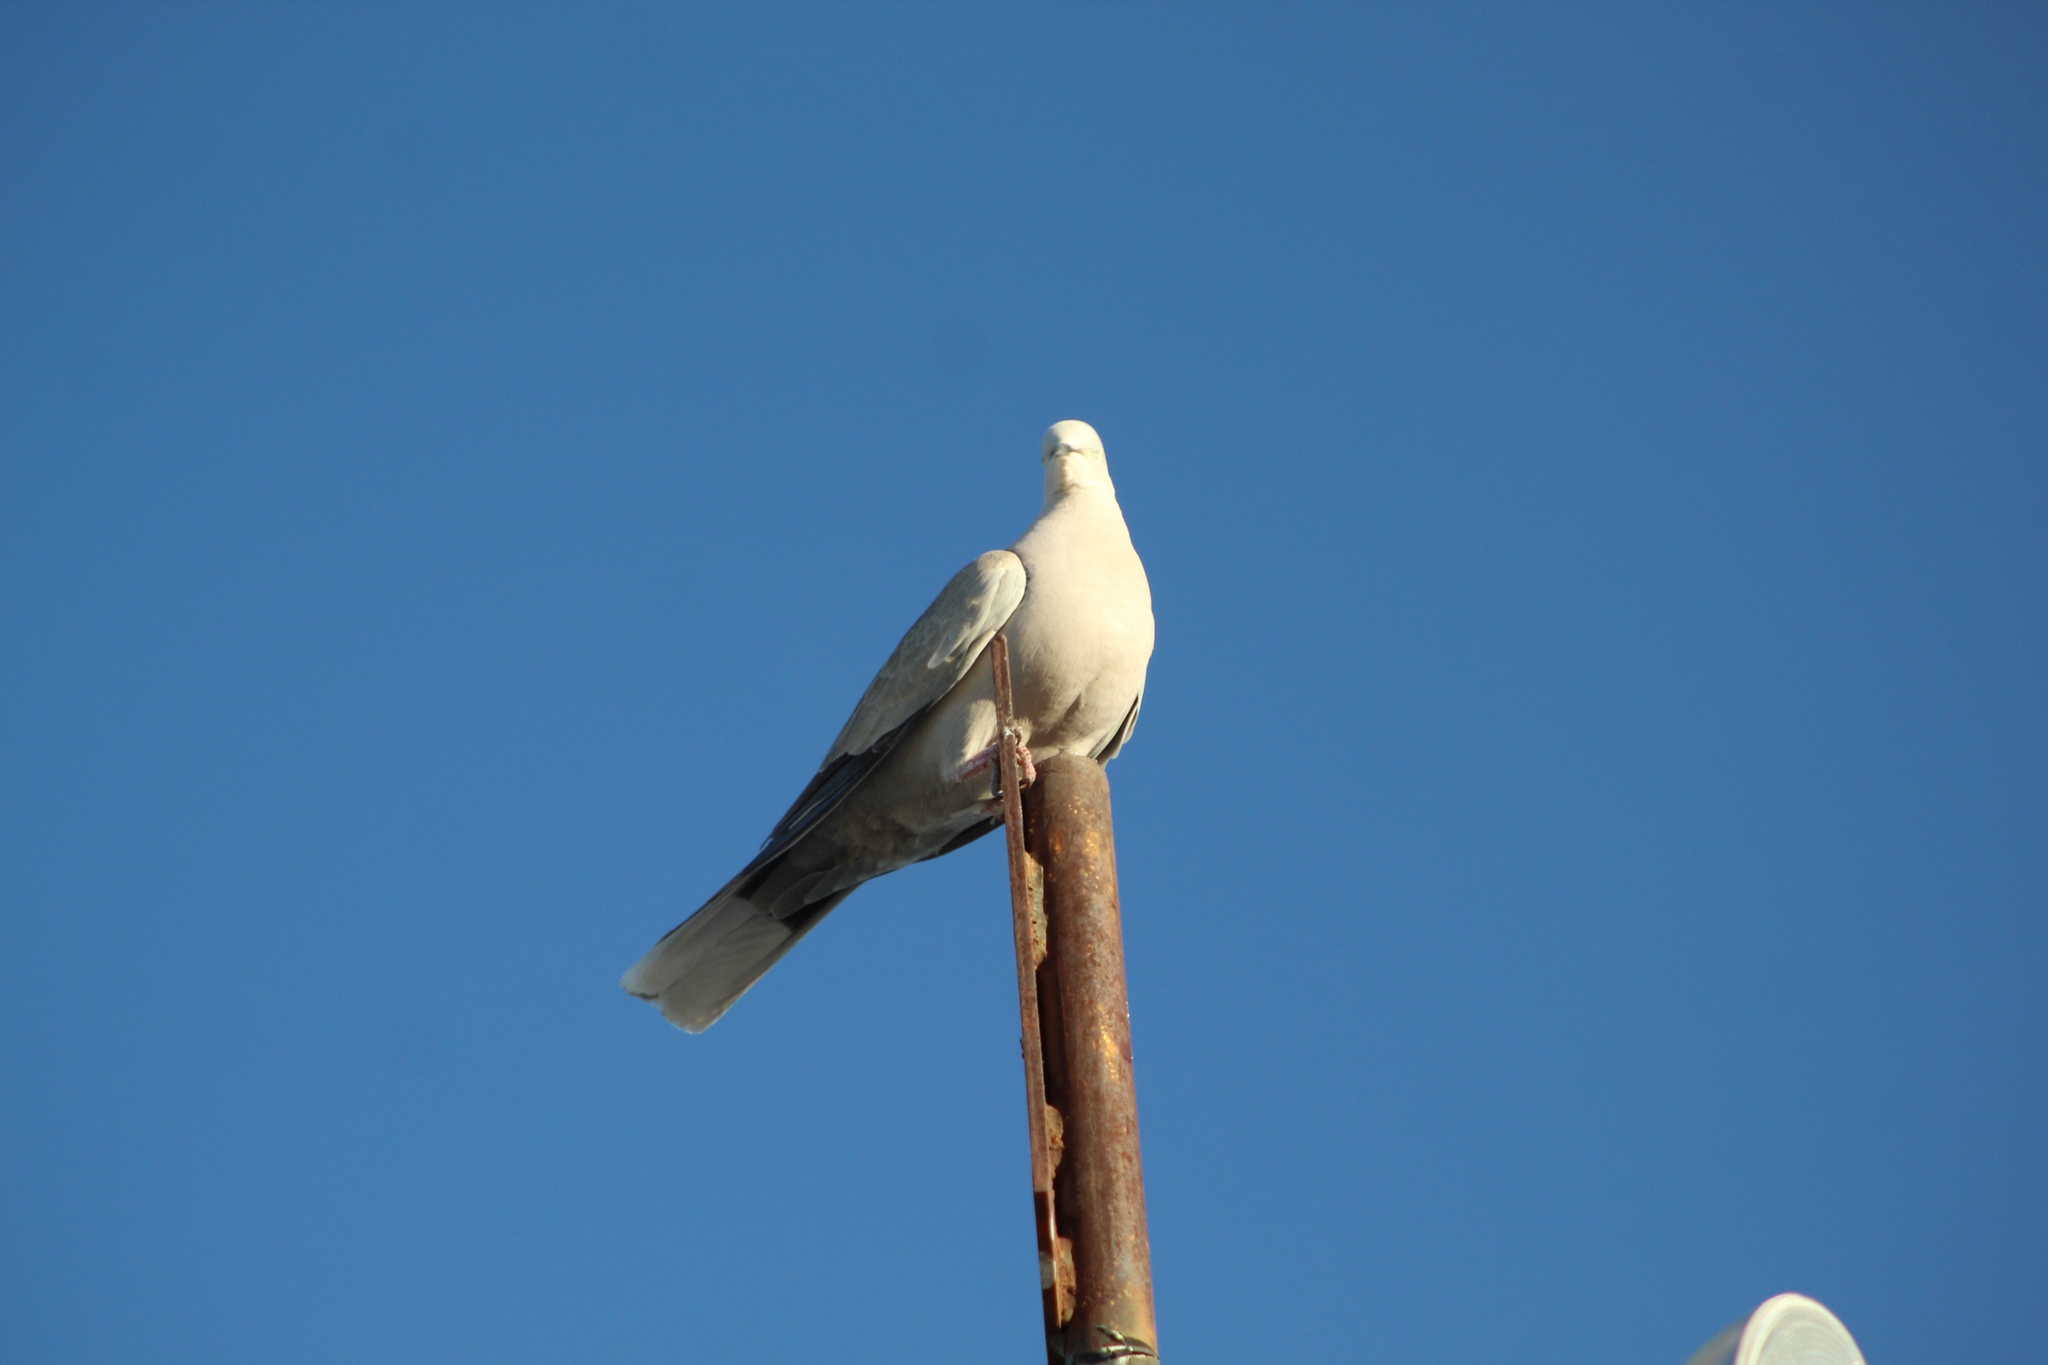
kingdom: Animalia
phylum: Chordata
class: Aves
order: Columbiformes
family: Columbidae
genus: Streptopelia
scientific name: Streptopelia decaocto
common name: Eurasian collared dove
